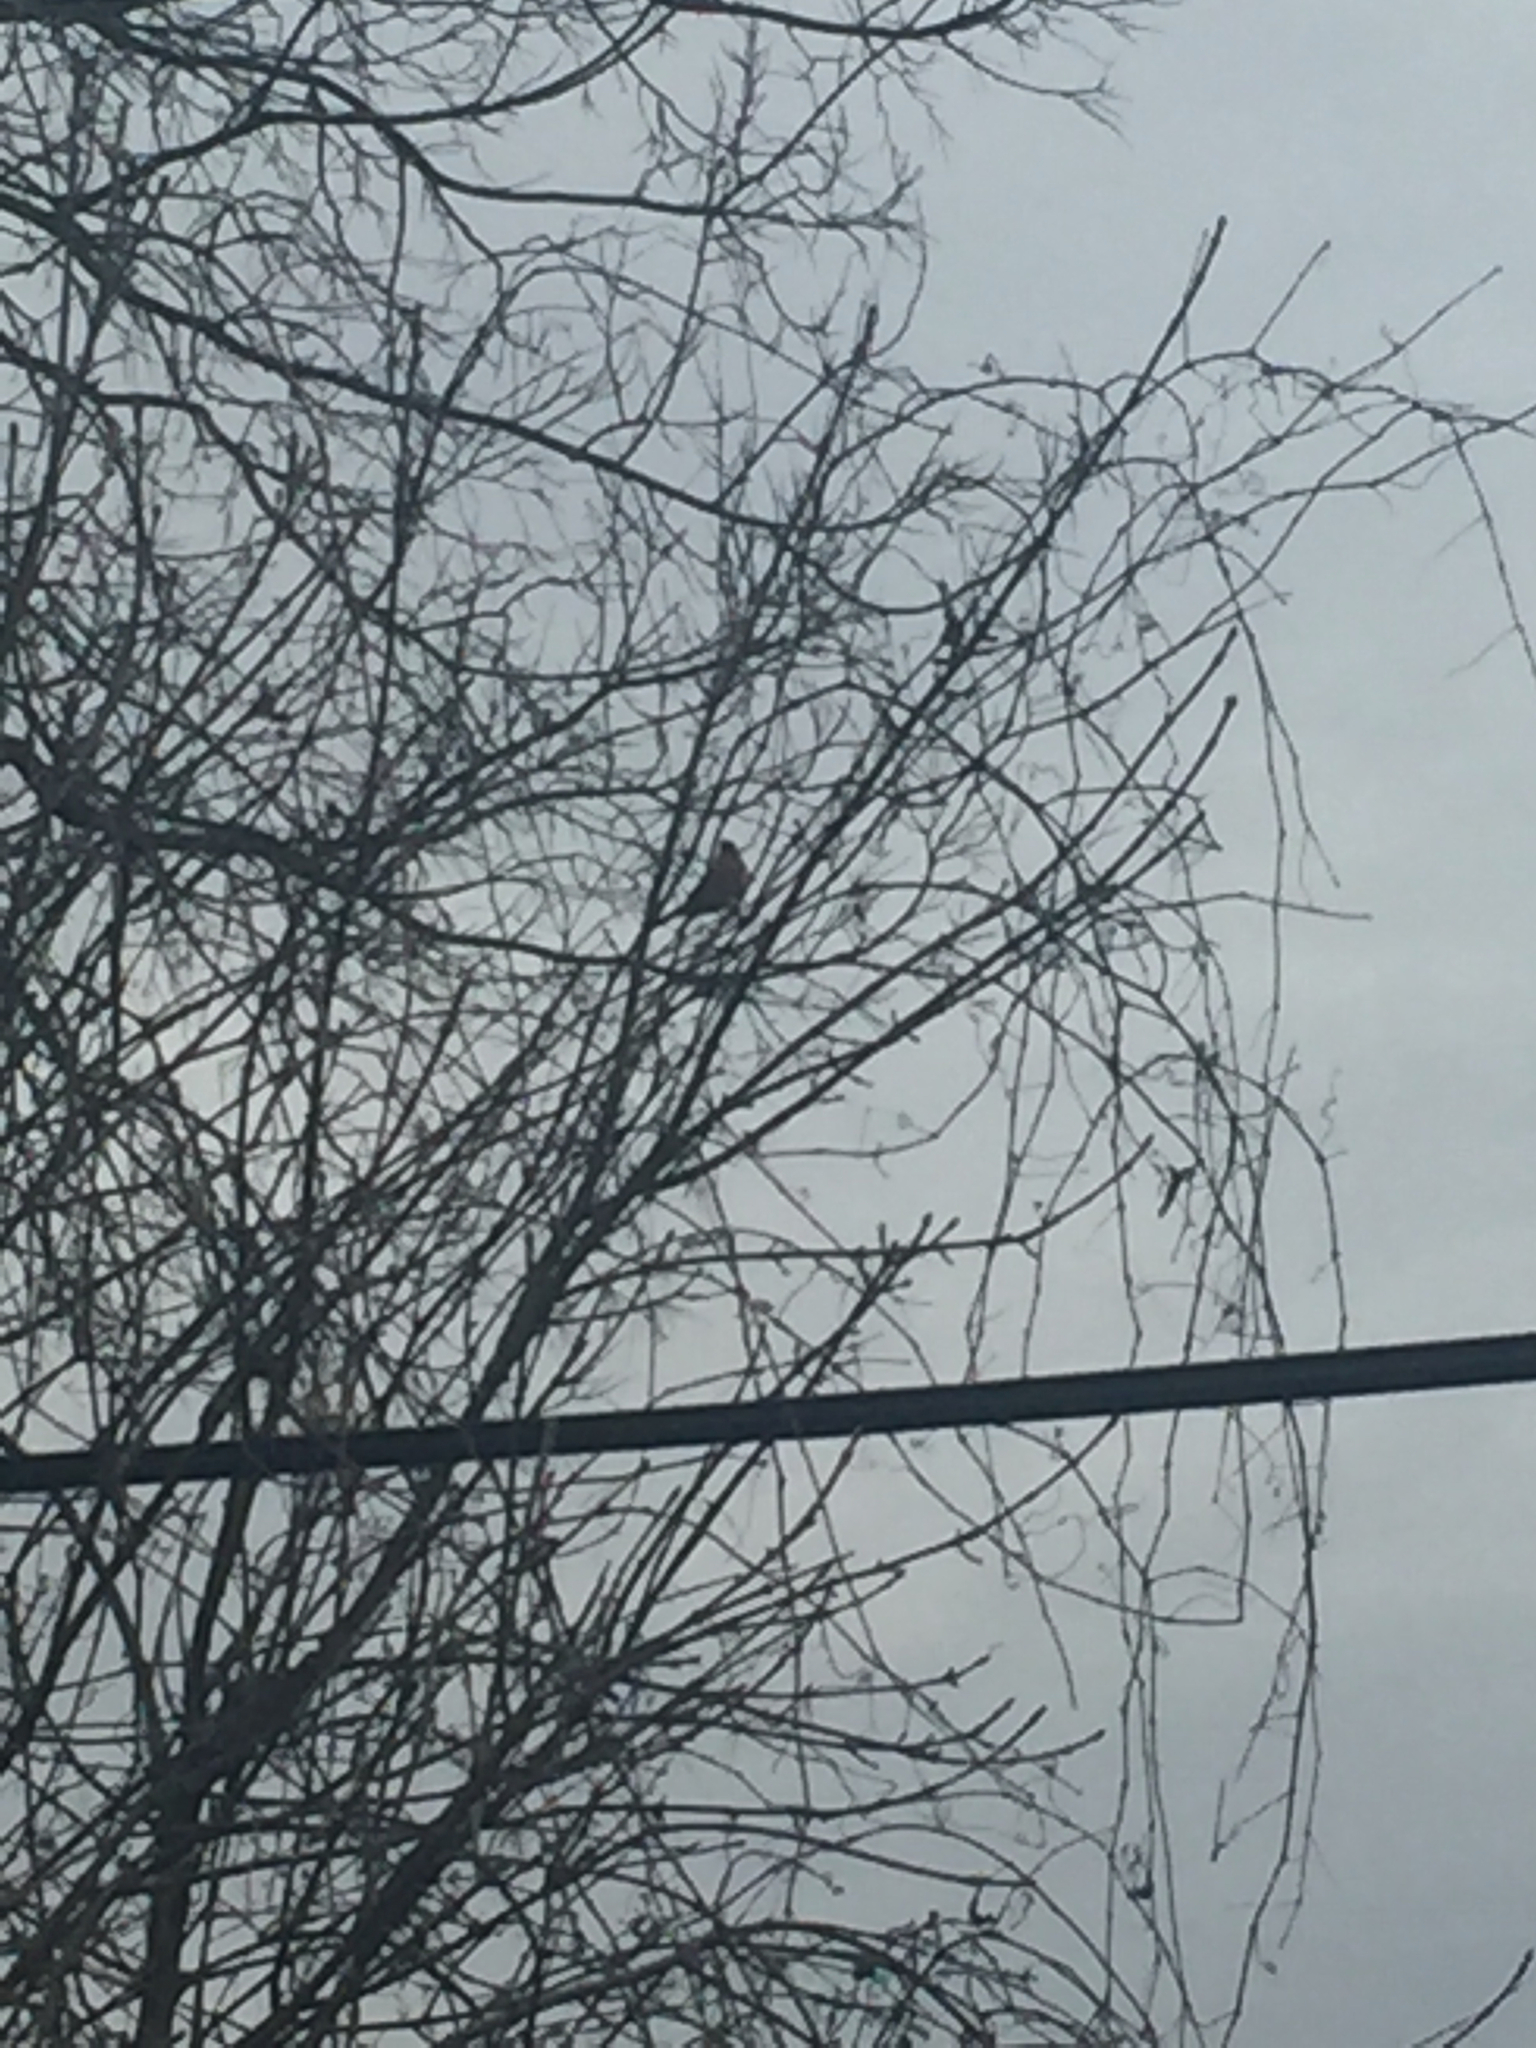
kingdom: Animalia
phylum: Chordata
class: Aves
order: Passeriformes
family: Cardinalidae
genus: Cardinalis
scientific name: Cardinalis cardinalis
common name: Northern cardinal
